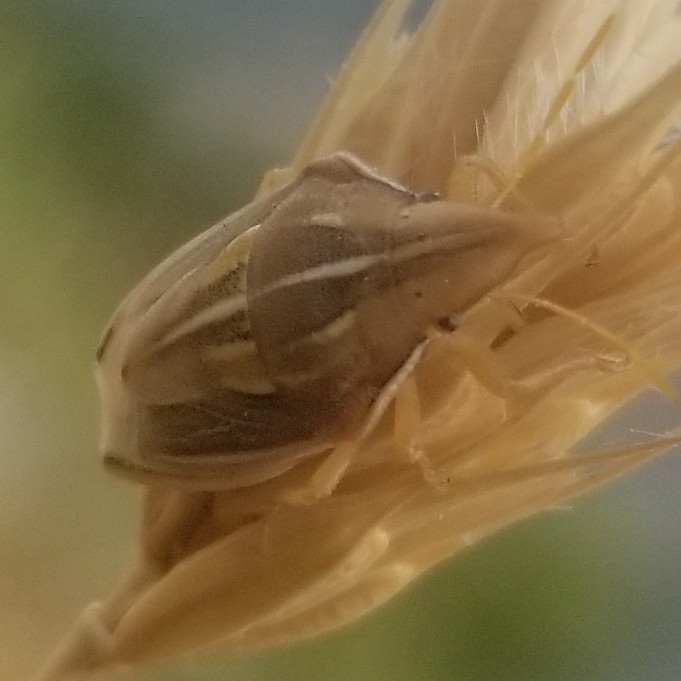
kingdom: Animalia
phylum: Arthropoda
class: Insecta
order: Hemiptera
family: Pentatomidae
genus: Aelia
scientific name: Aelia rostrata
